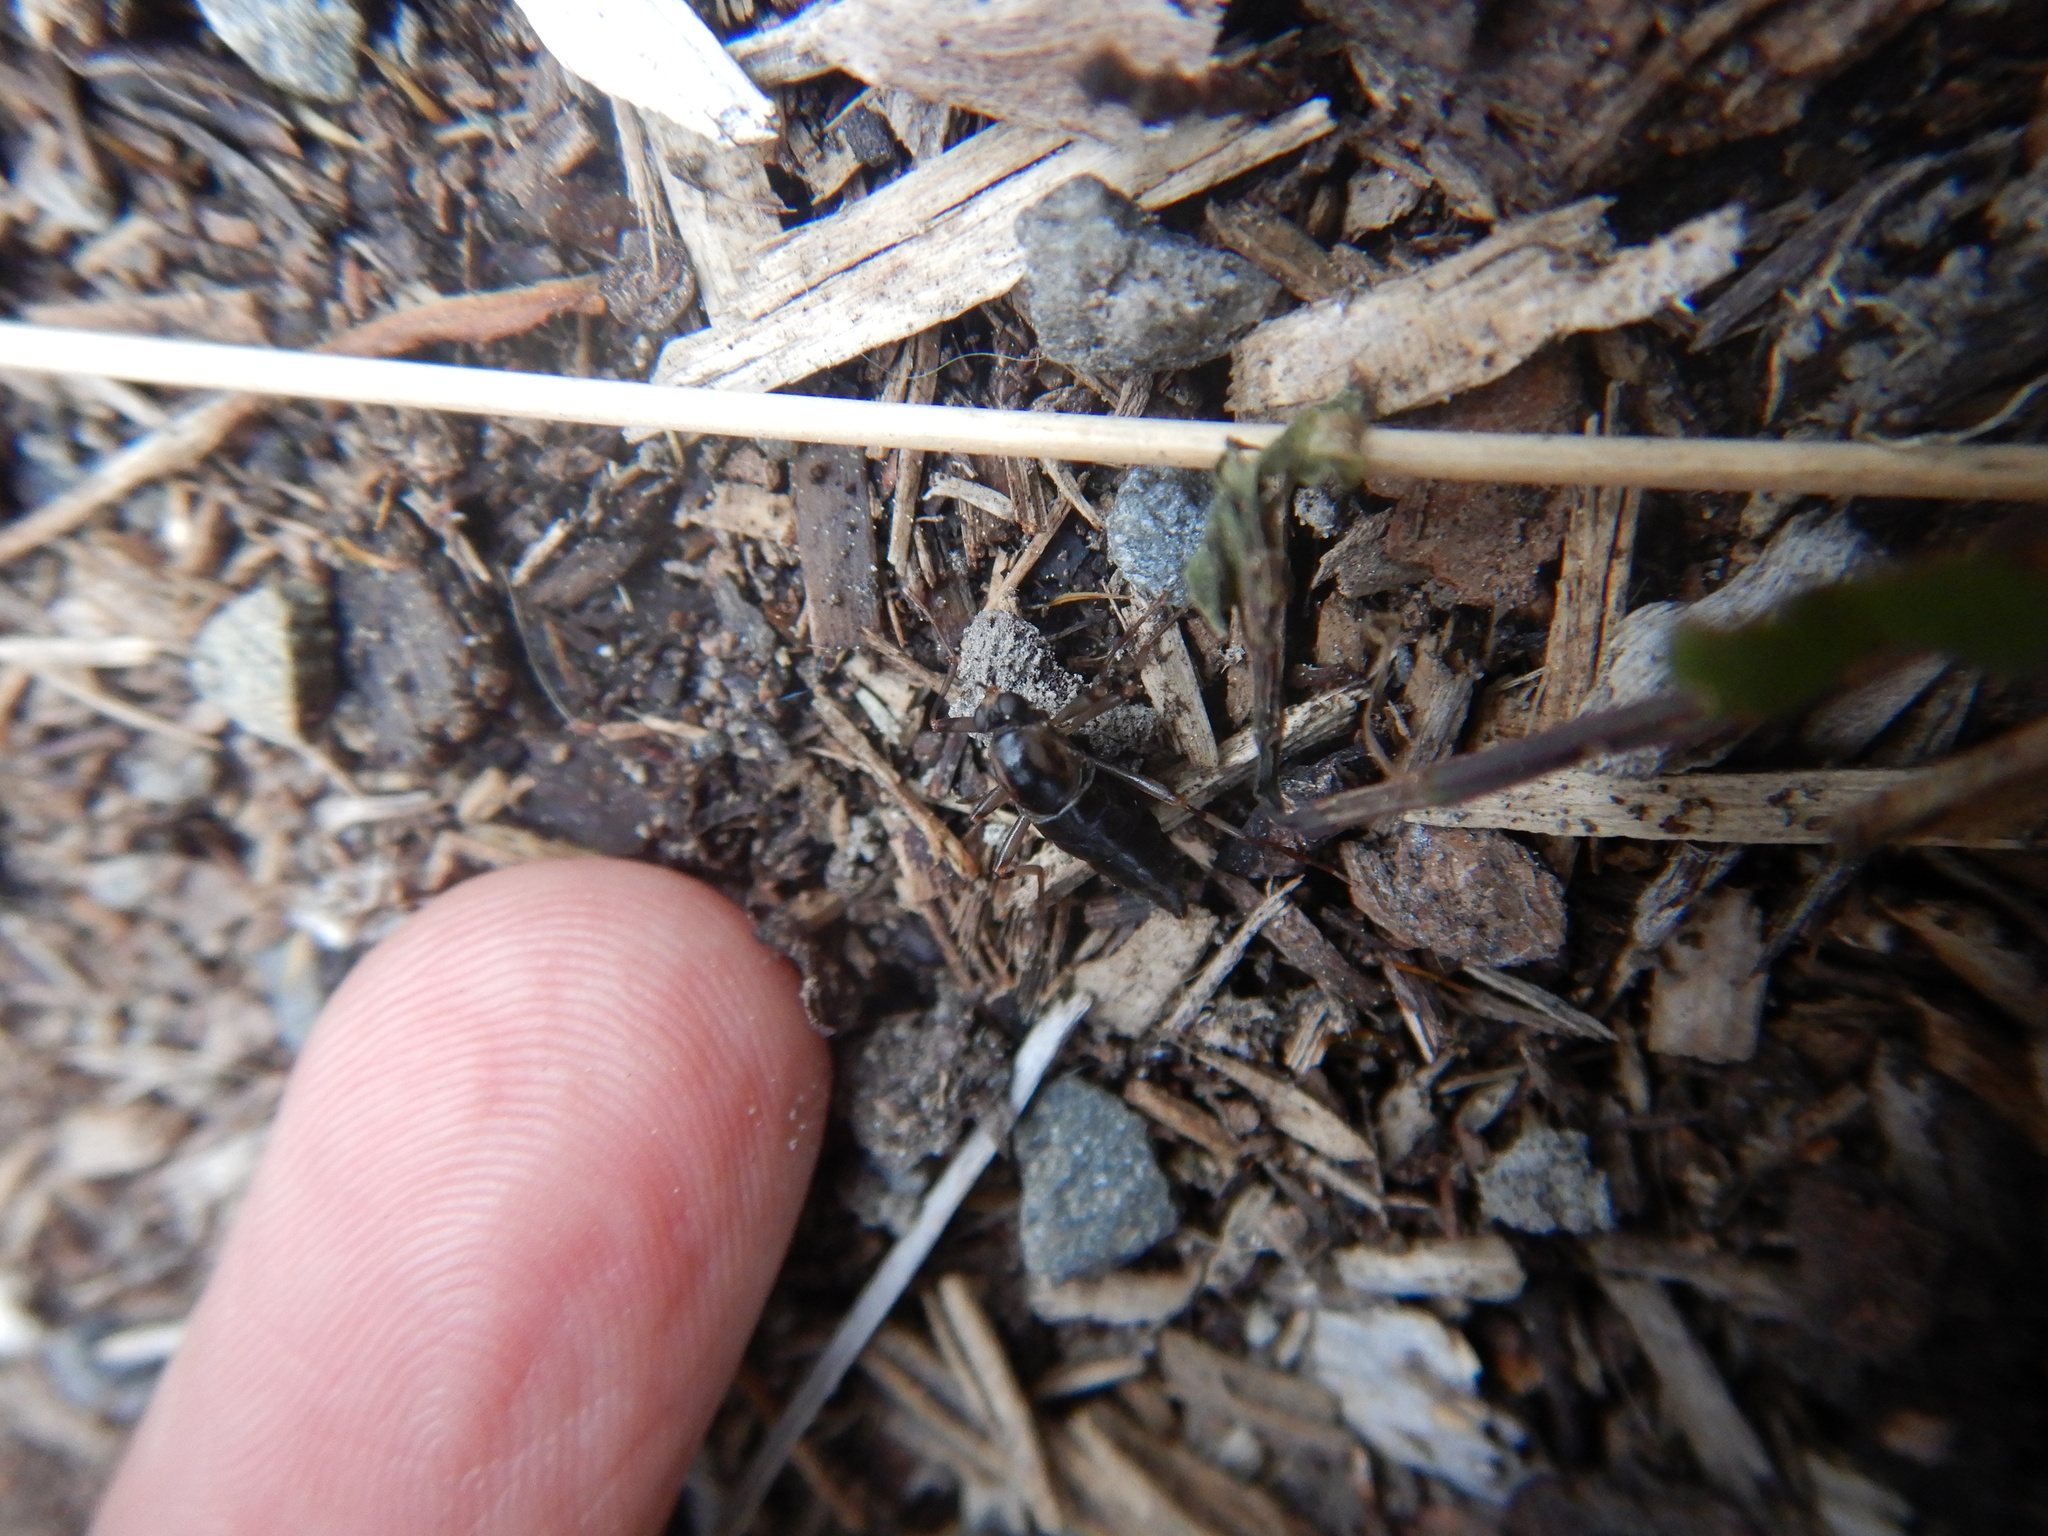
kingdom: Animalia
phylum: Arthropoda
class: Insecta
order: Diptera
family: Stratiomyidae
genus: Boreoides
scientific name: Boreoides tasmaniensis
